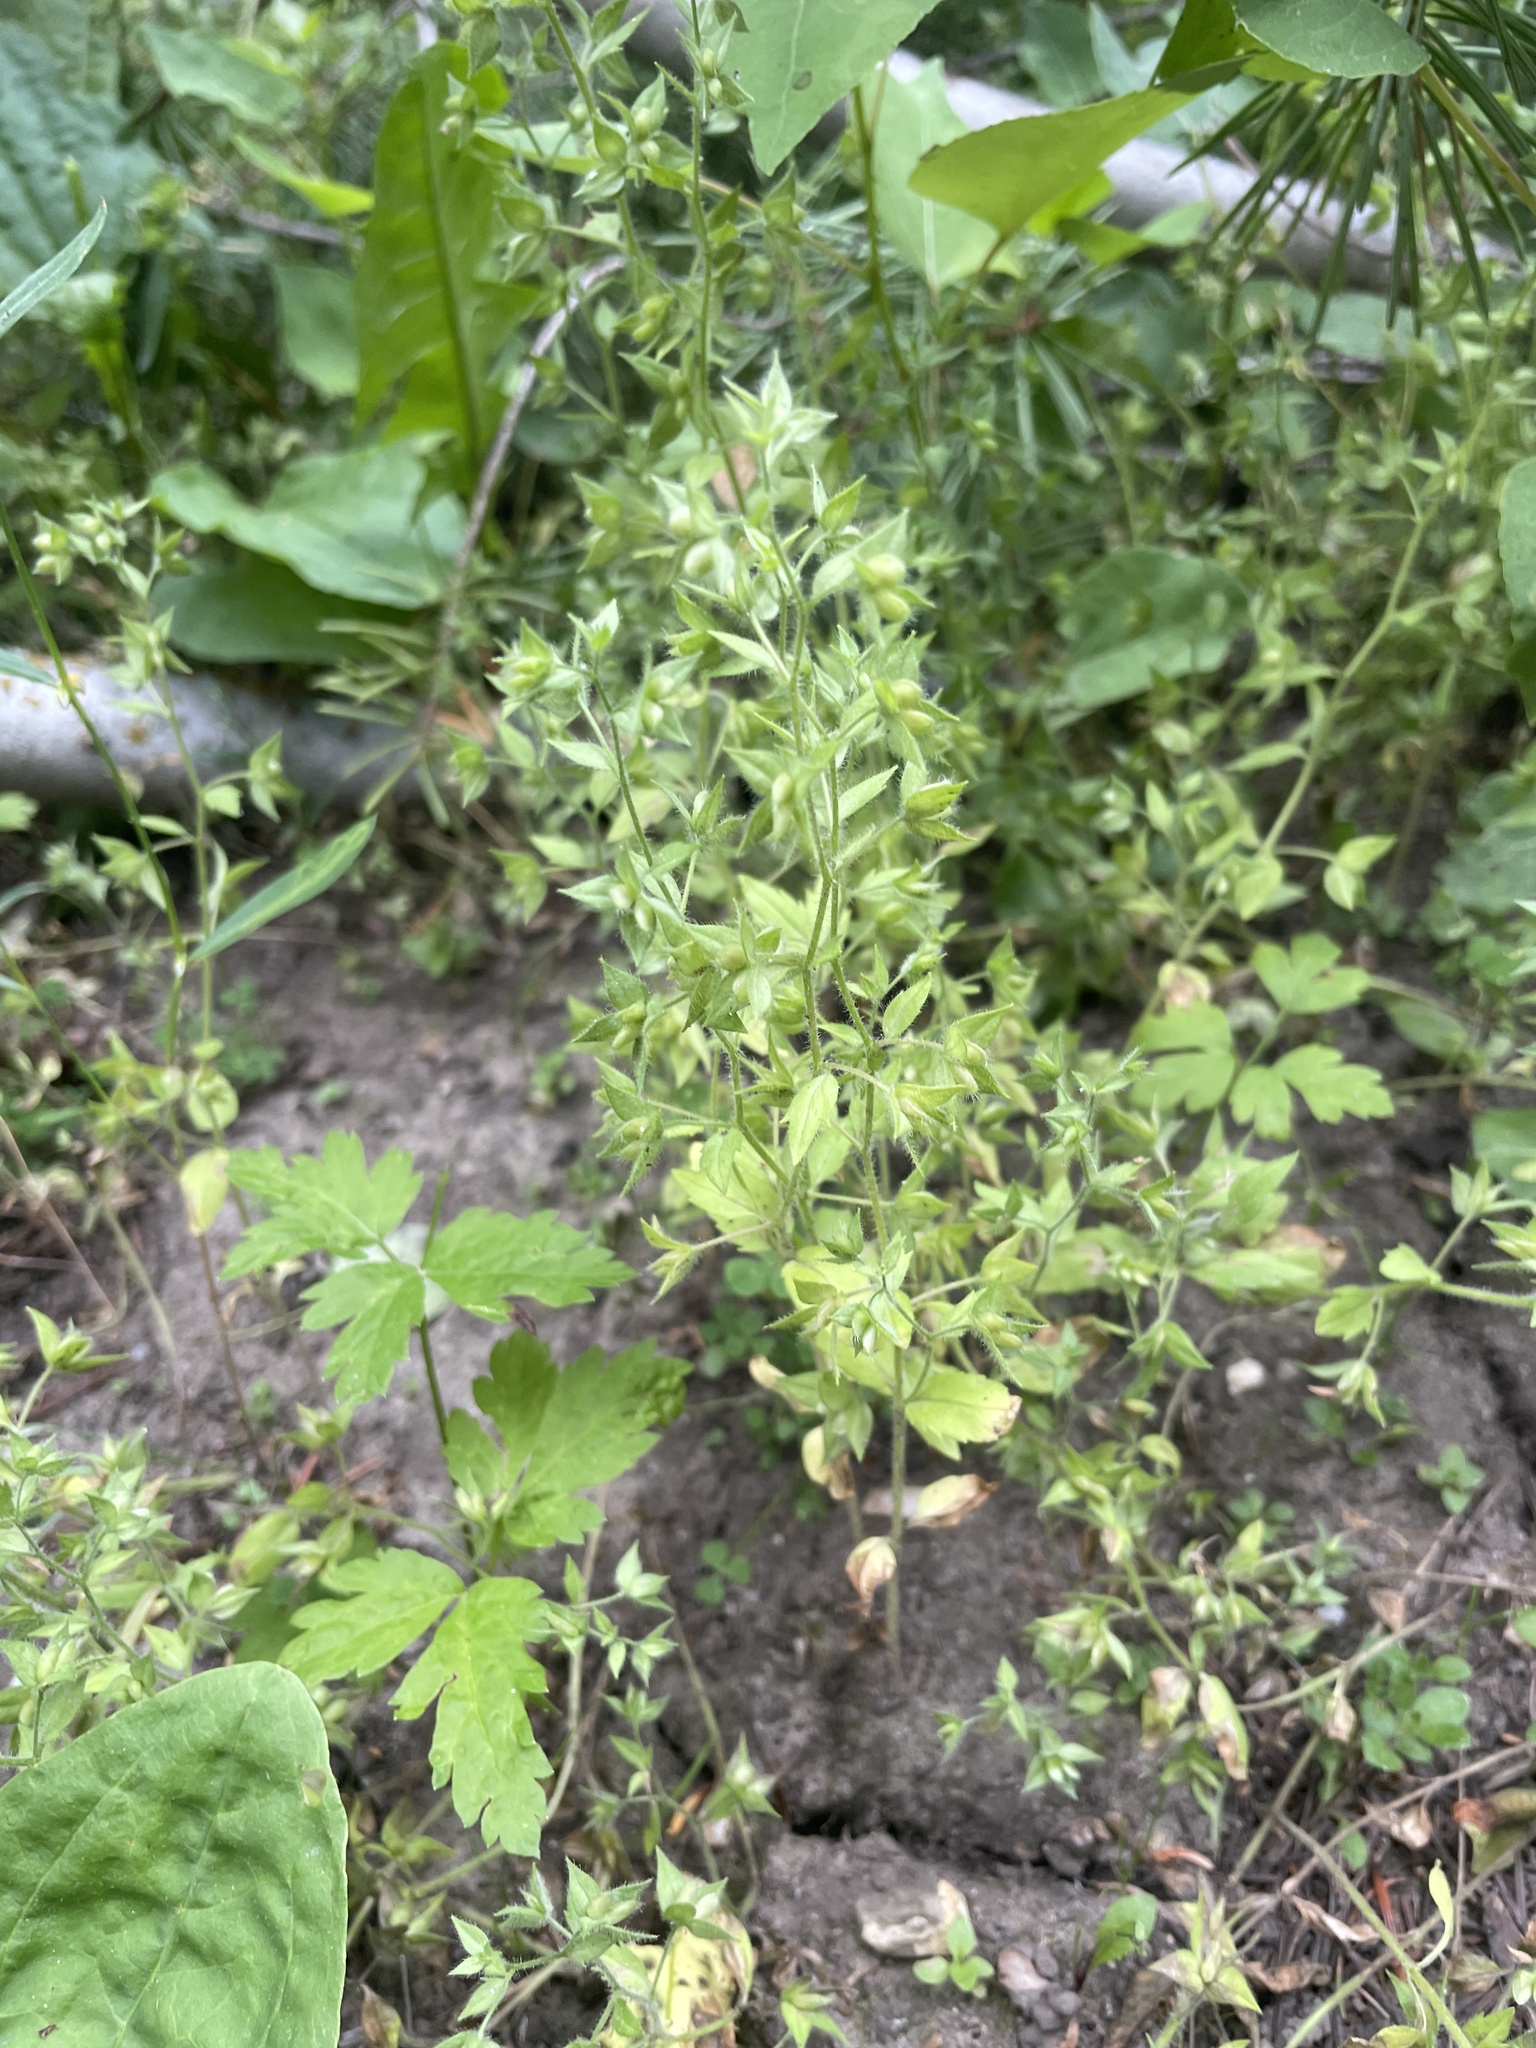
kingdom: Plantae
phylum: Tracheophyta
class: Magnoliopsida
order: Lamiales
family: Plantaginaceae
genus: Veronica
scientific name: Veronica biloba
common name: Twolobe speedwell
